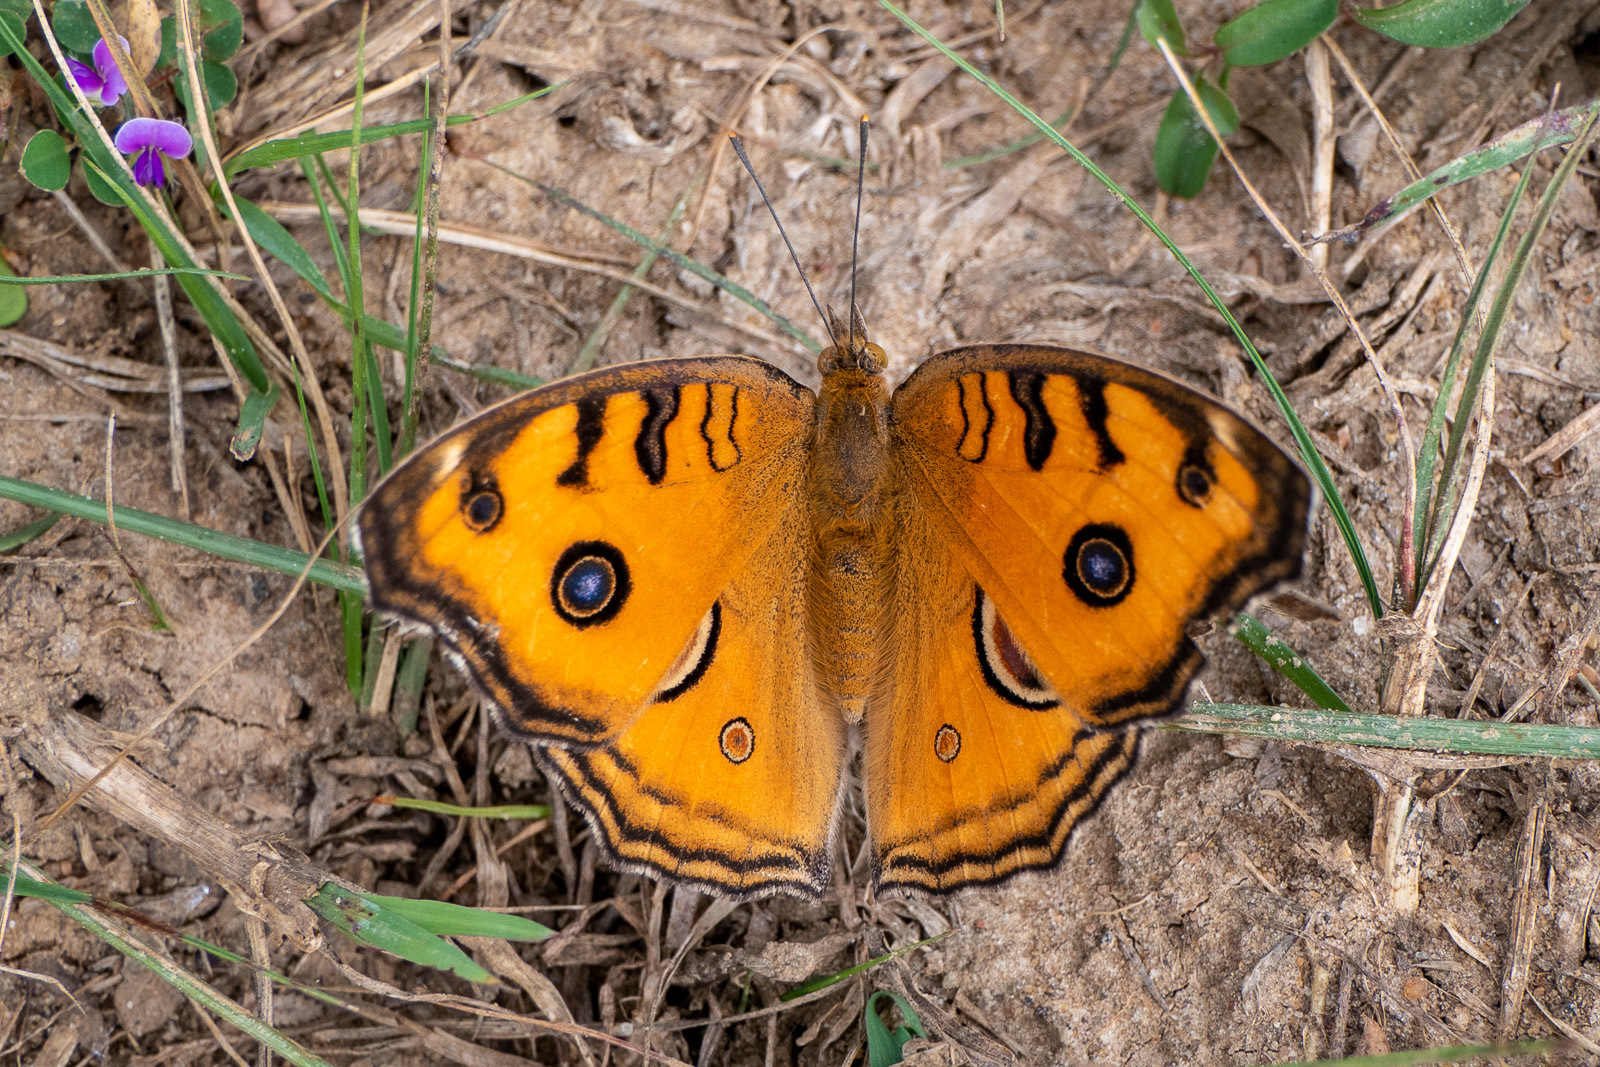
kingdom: Animalia
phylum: Arthropoda
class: Insecta
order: Lepidoptera
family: Nymphalidae
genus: Junonia
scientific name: Junonia almana
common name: Peacock pansy
